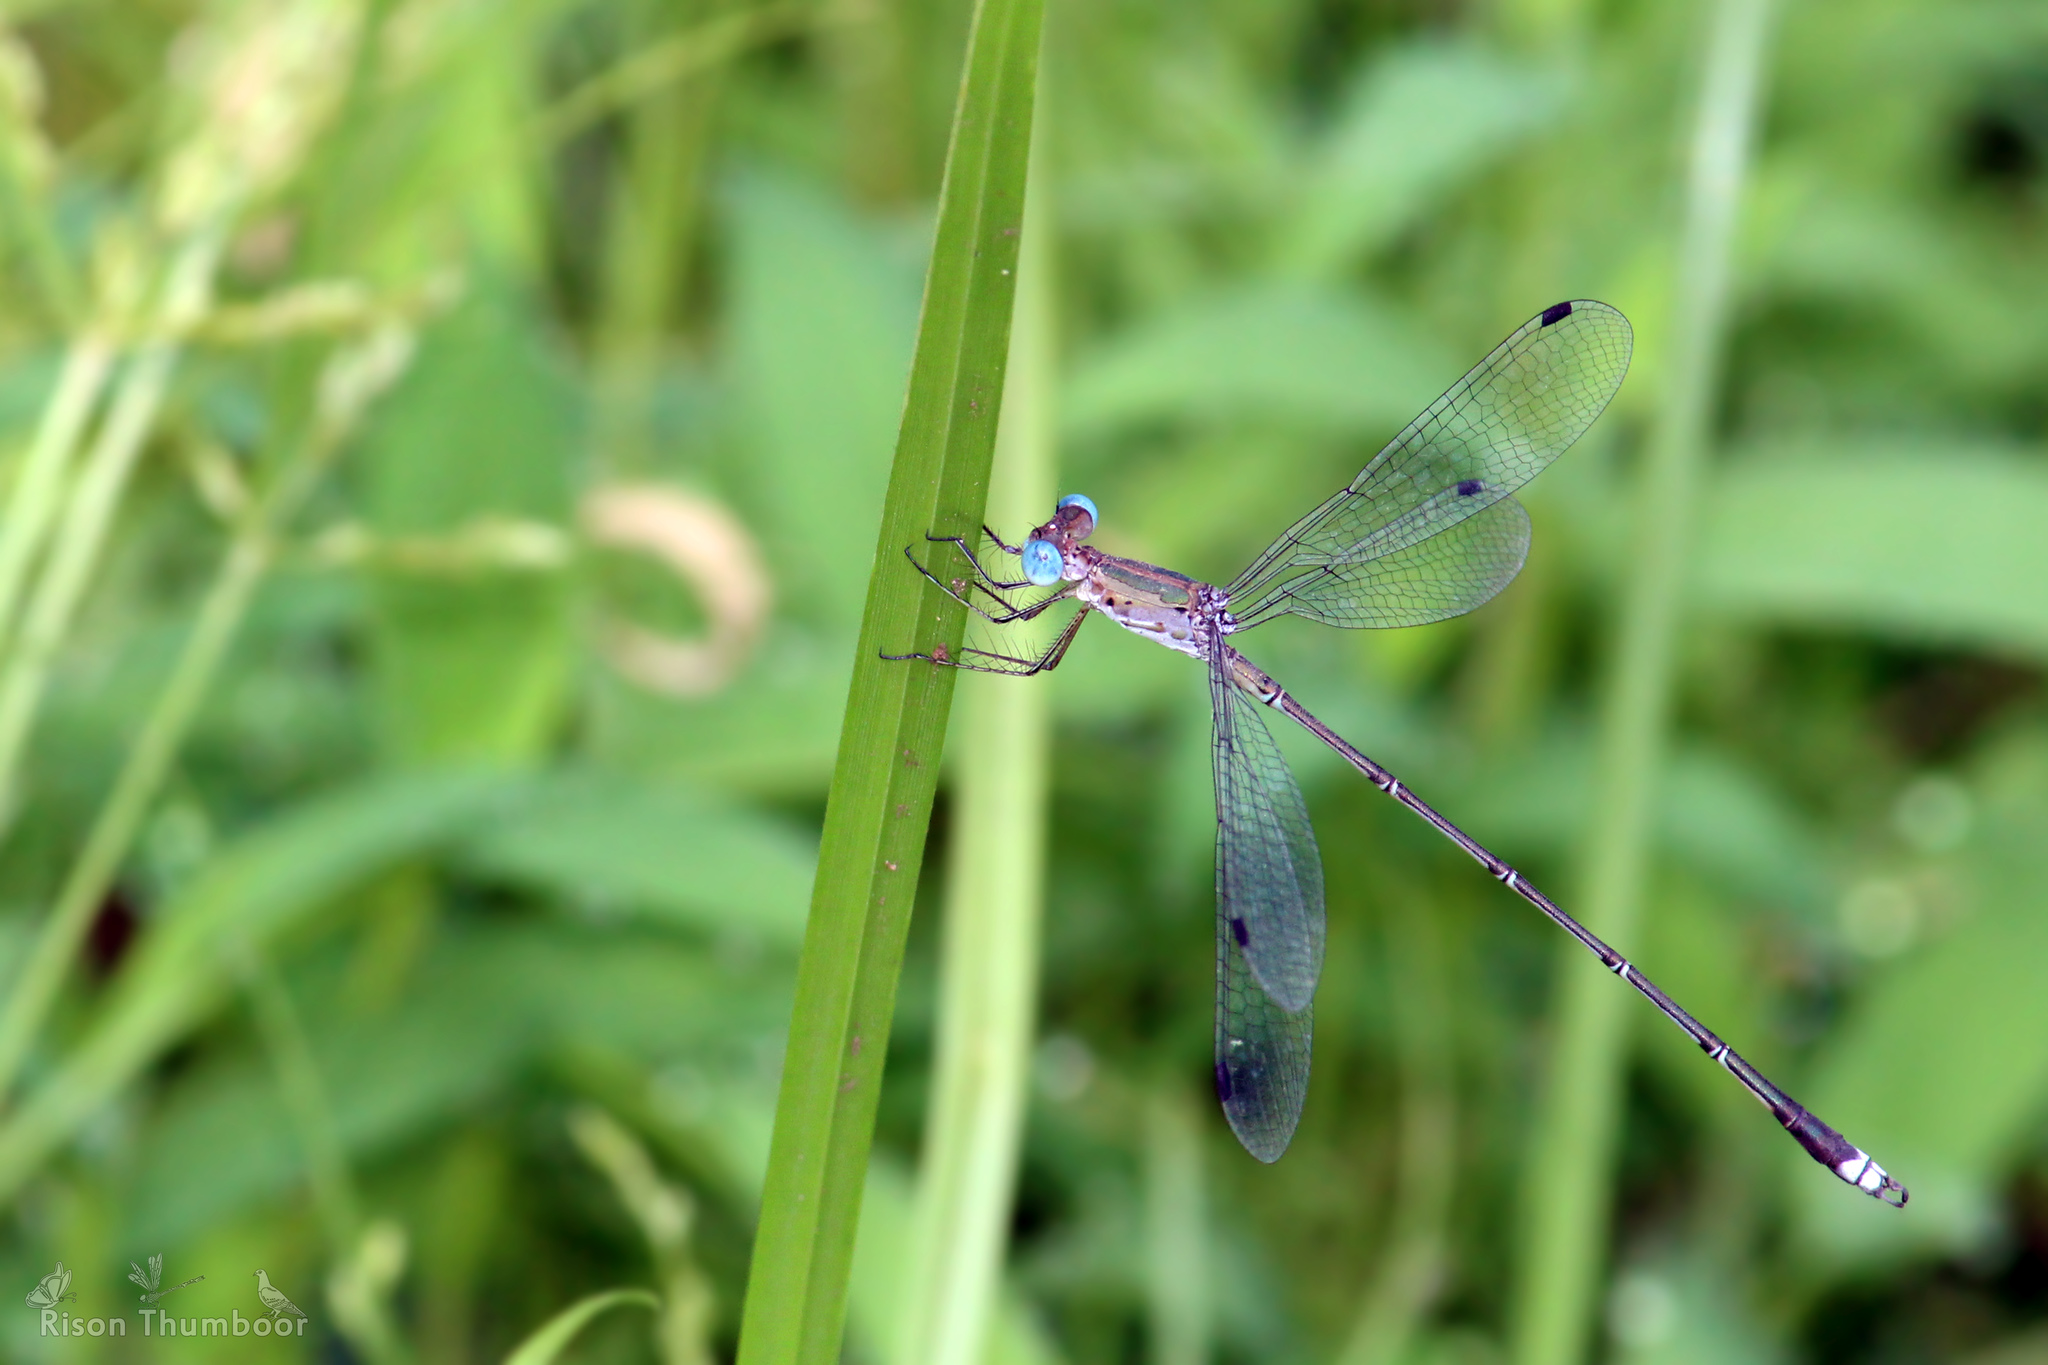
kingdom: Animalia
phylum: Arthropoda
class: Insecta
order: Odonata
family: Lestidae
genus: Lestes
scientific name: Lestes elatus
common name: Emerald spreadwing
